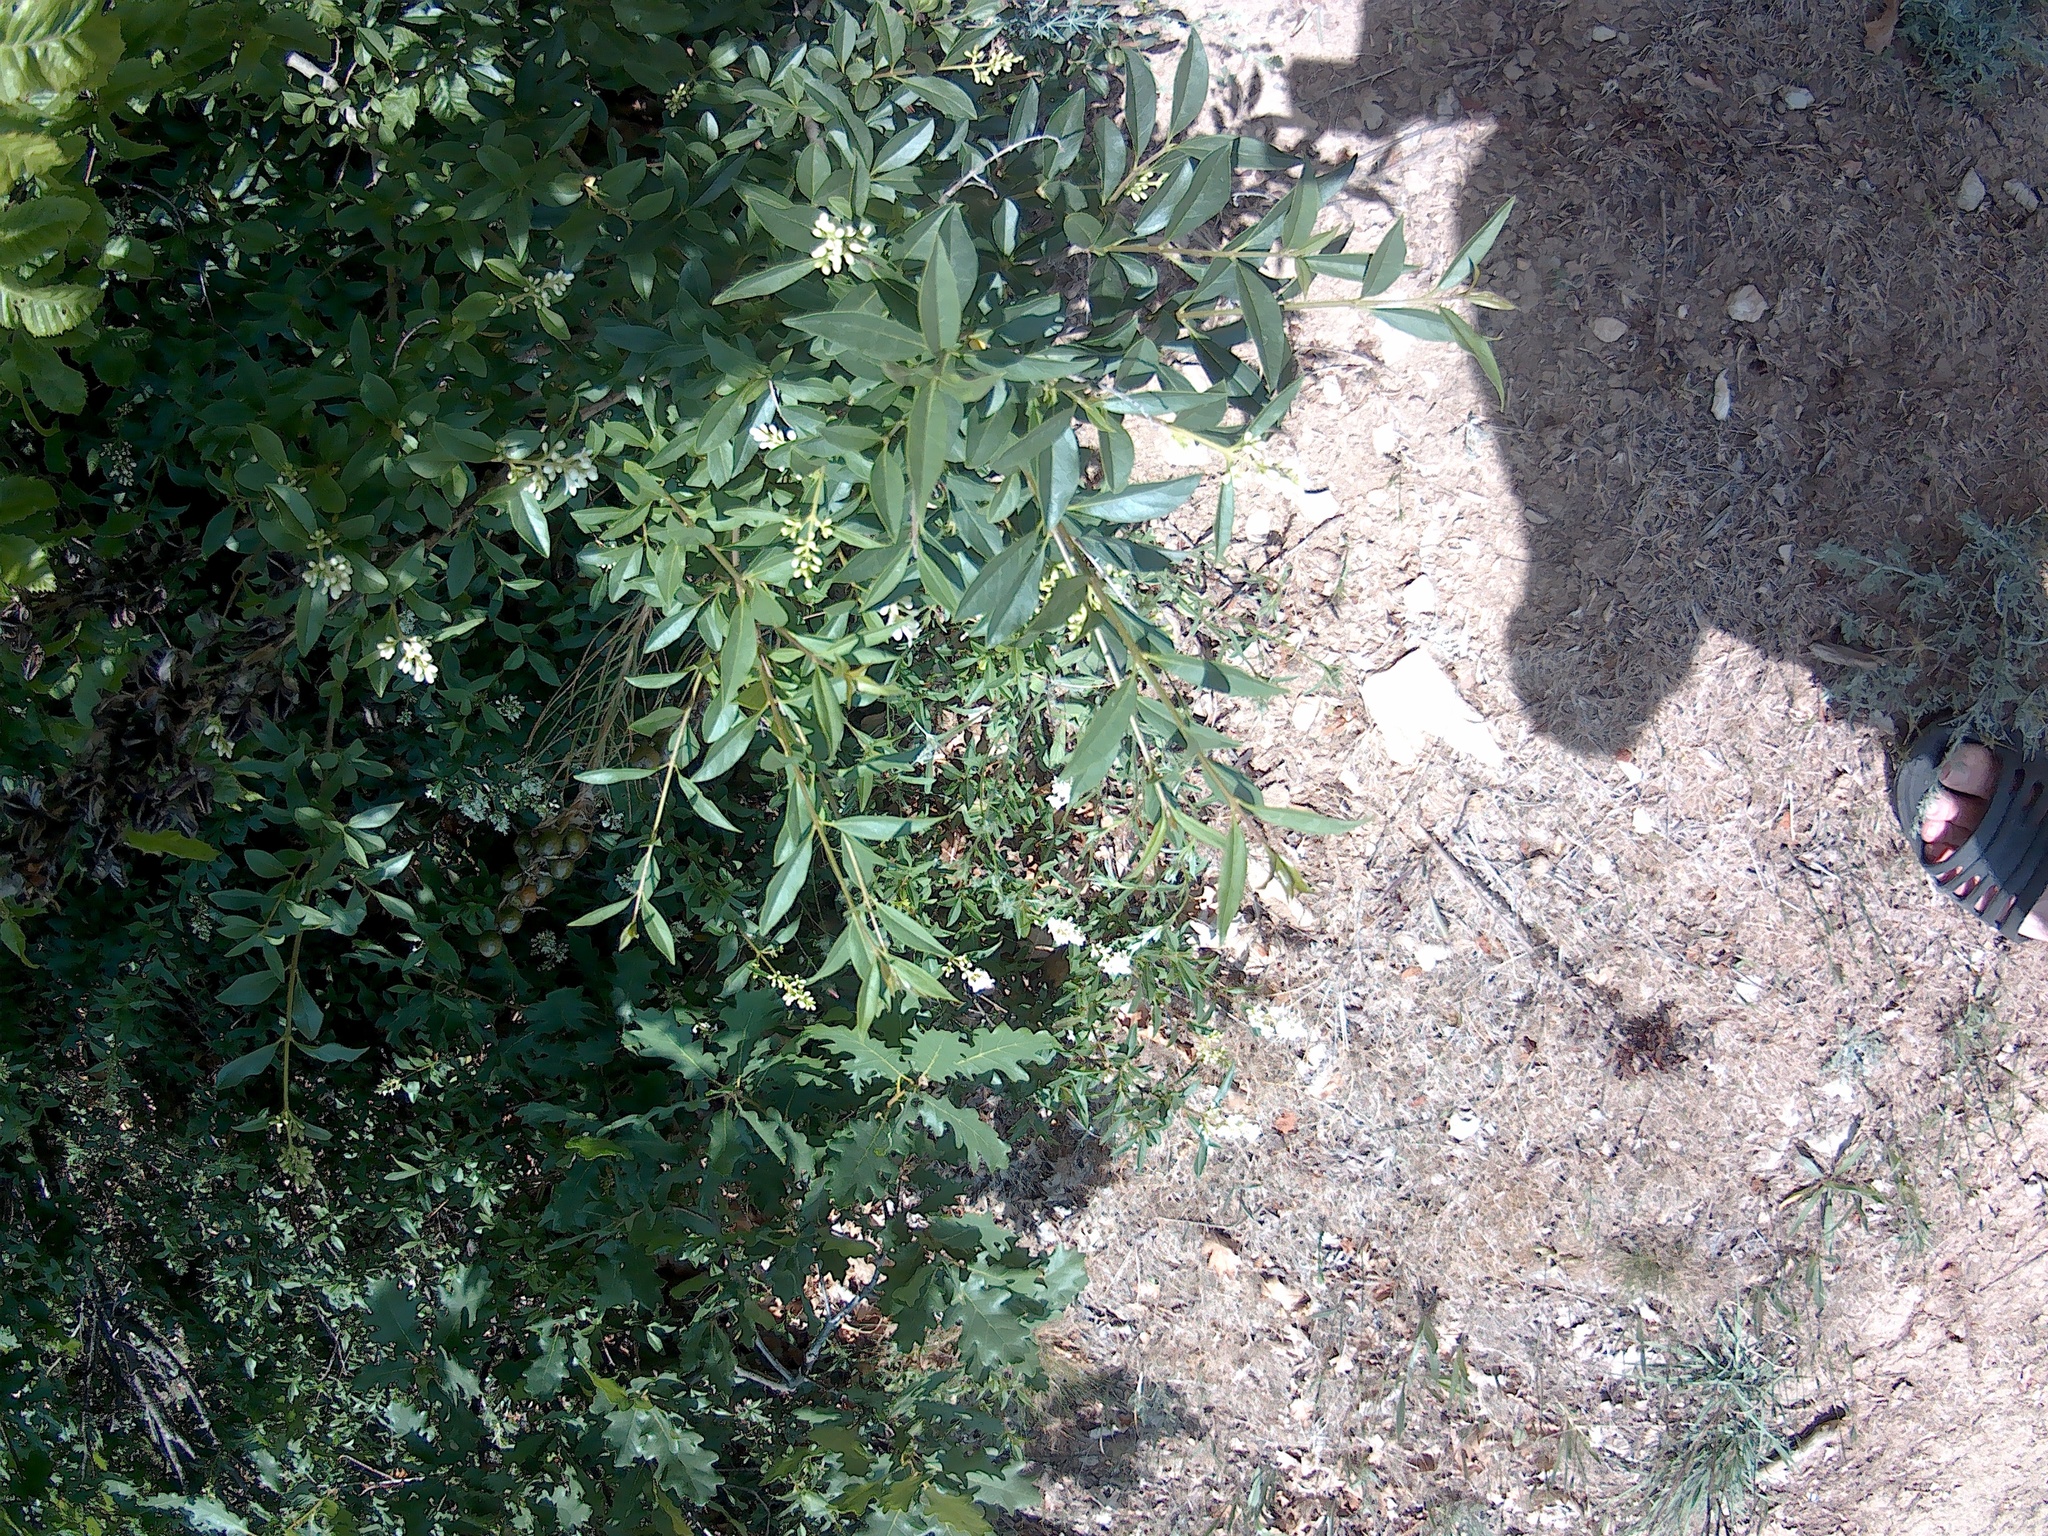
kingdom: Plantae
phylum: Tracheophyta
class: Magnoliopsida
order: Lamiales
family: Oleaceae
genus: Ligustrum
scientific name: Ligustrum vulgare
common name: Wild privet
